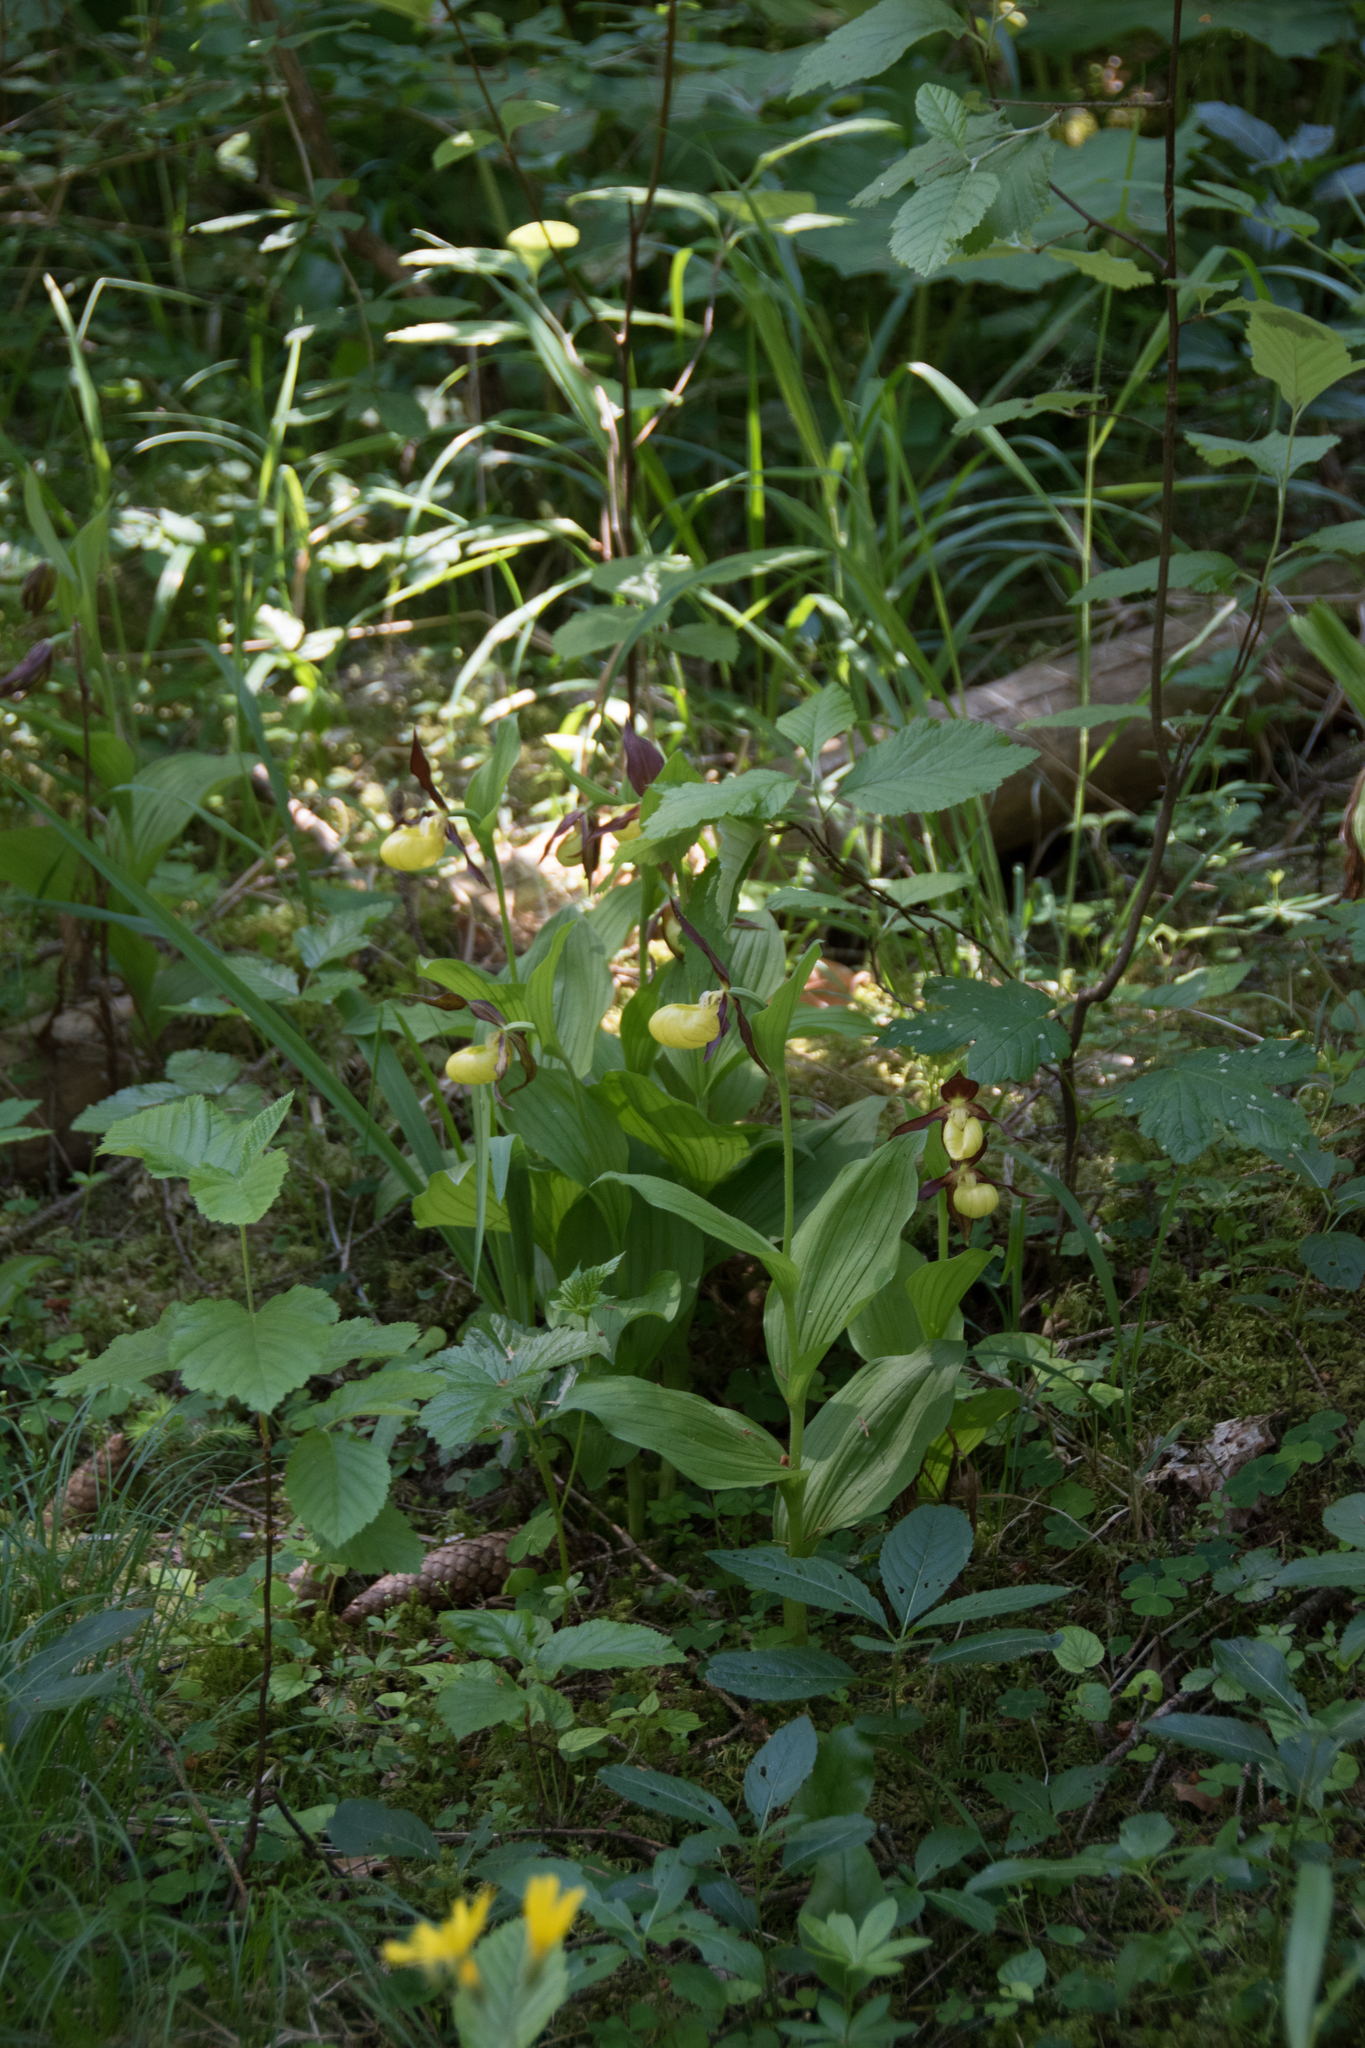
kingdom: Plantae
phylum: Tracheophyta
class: Liliopsida
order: Asparagales
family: Orchidaceae
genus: Cypripedium
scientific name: Cypripedium calceolus
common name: Lady's-slipper
